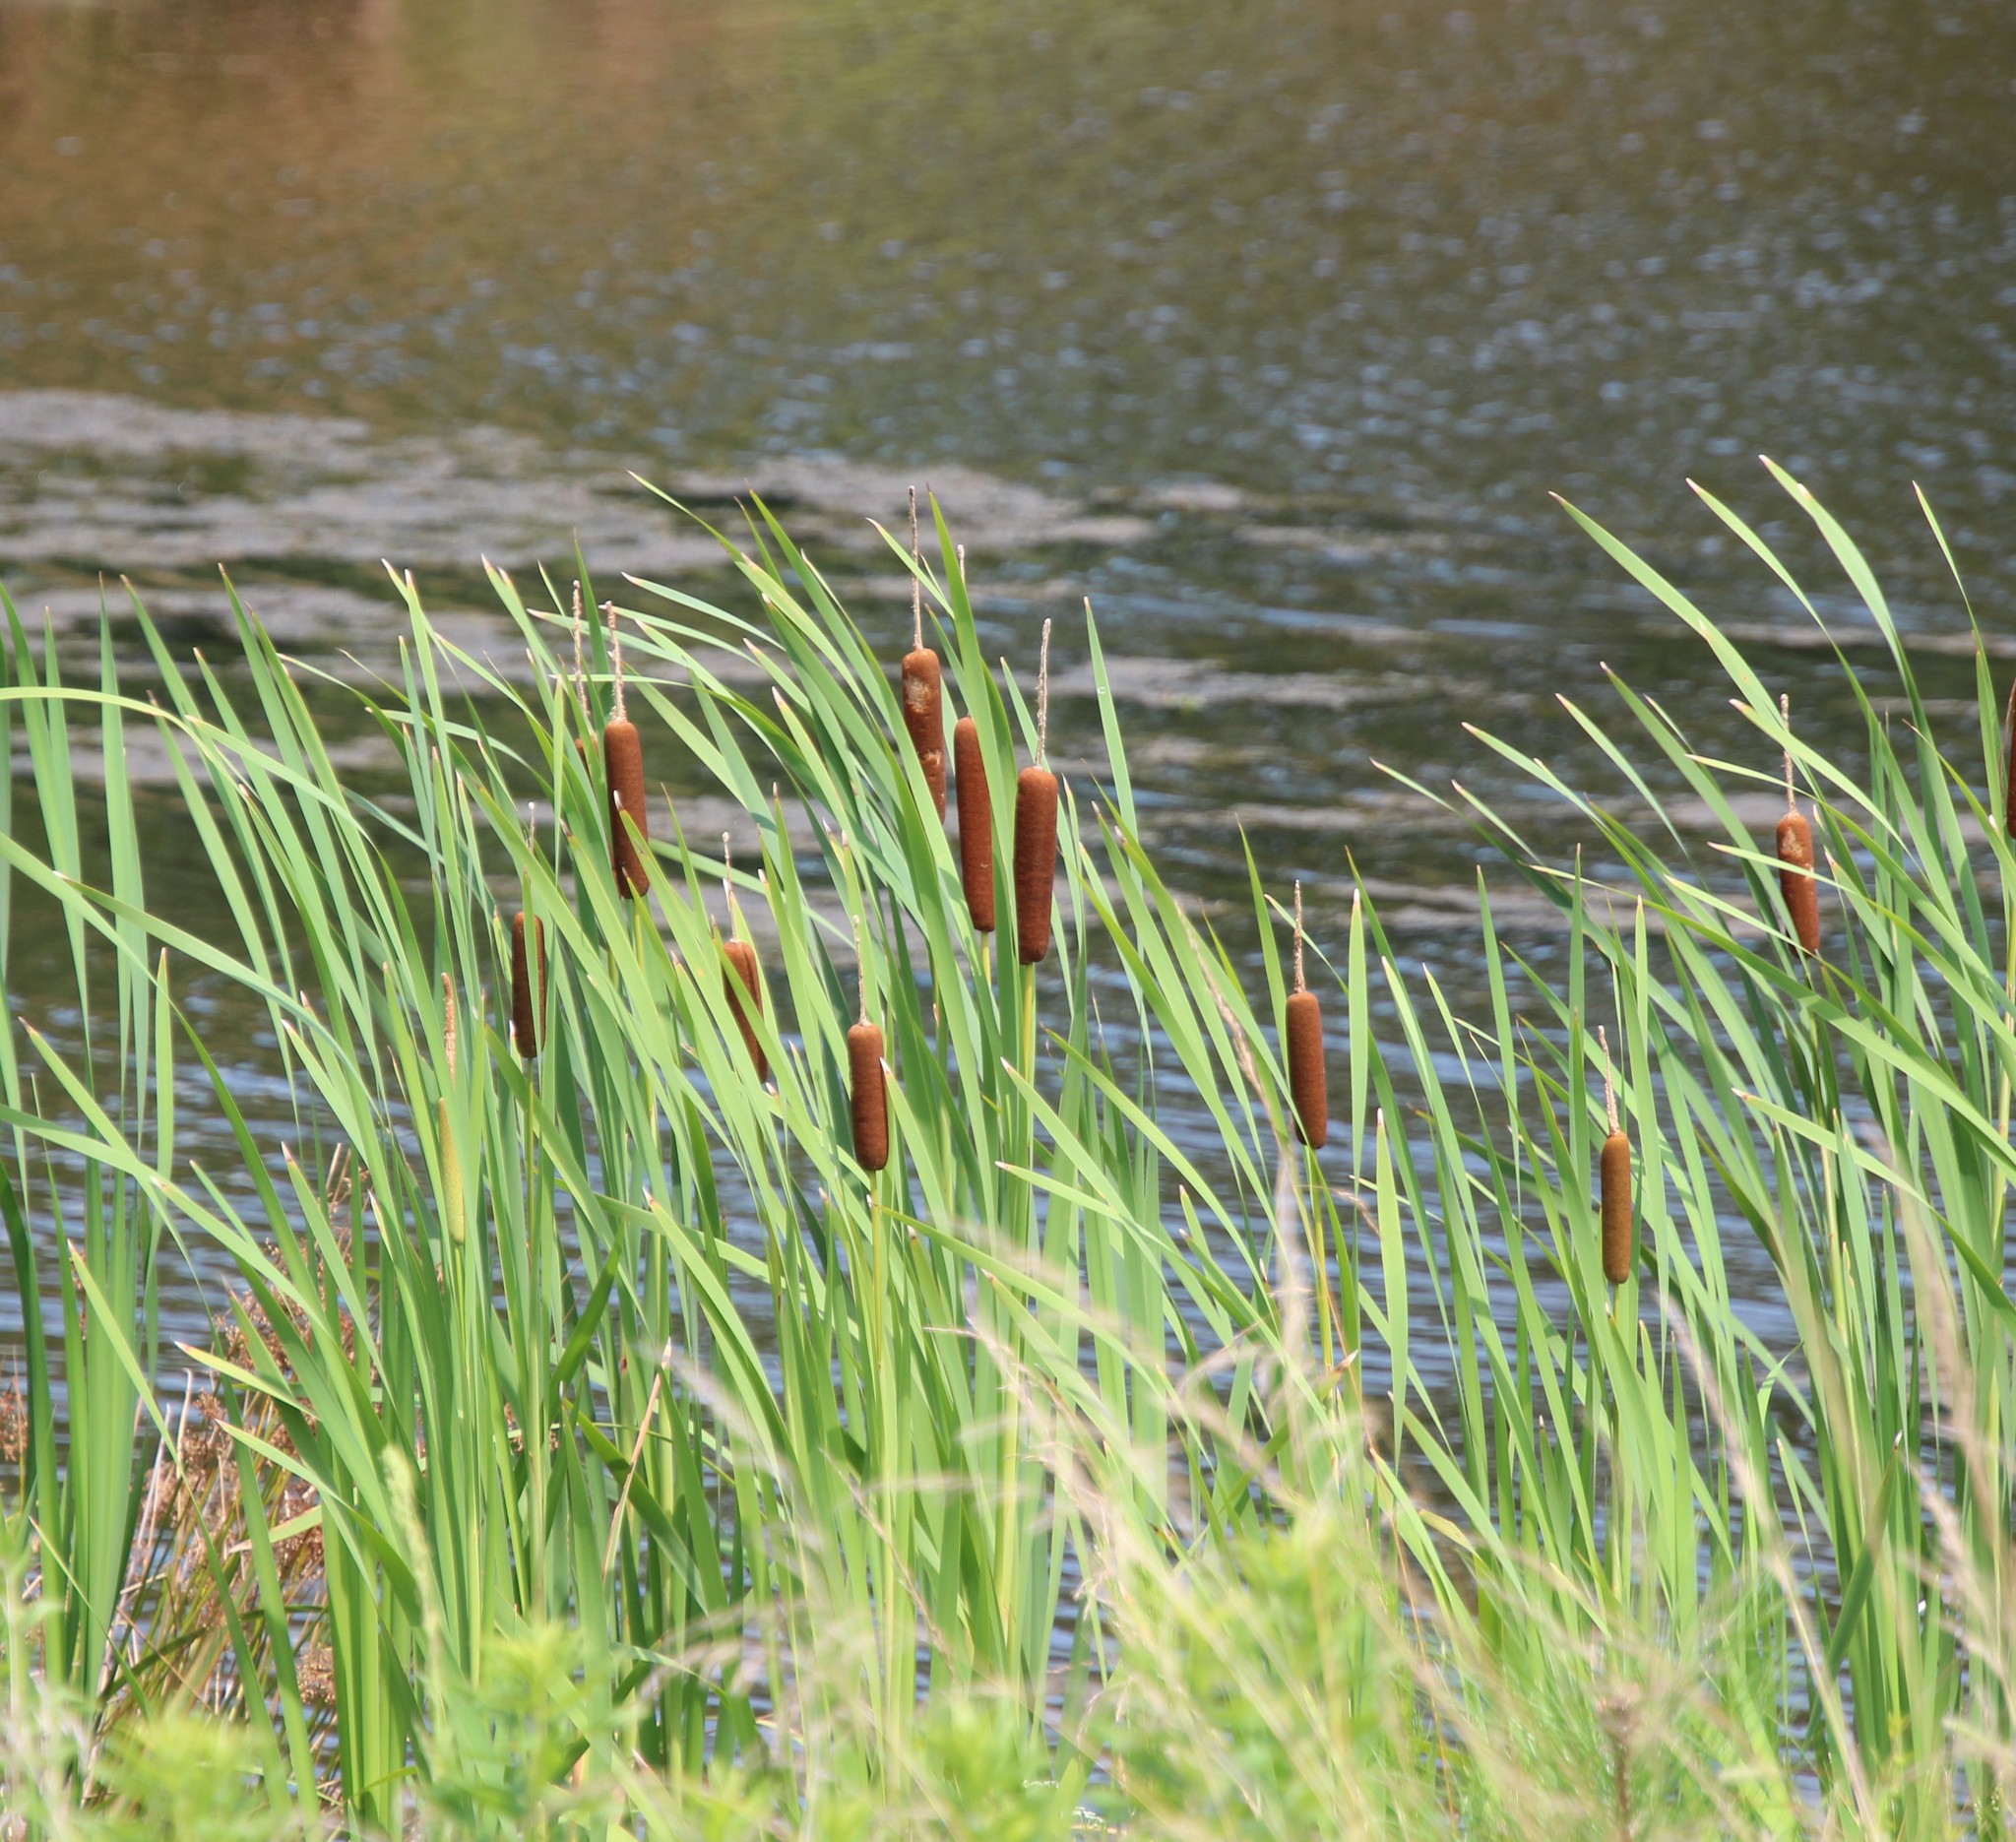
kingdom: Plantae
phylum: Tracheophyta
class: Liliopsida
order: Poales
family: Typhaceae
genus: Typha
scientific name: Typha latifolia
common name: Broadleaf cattail
